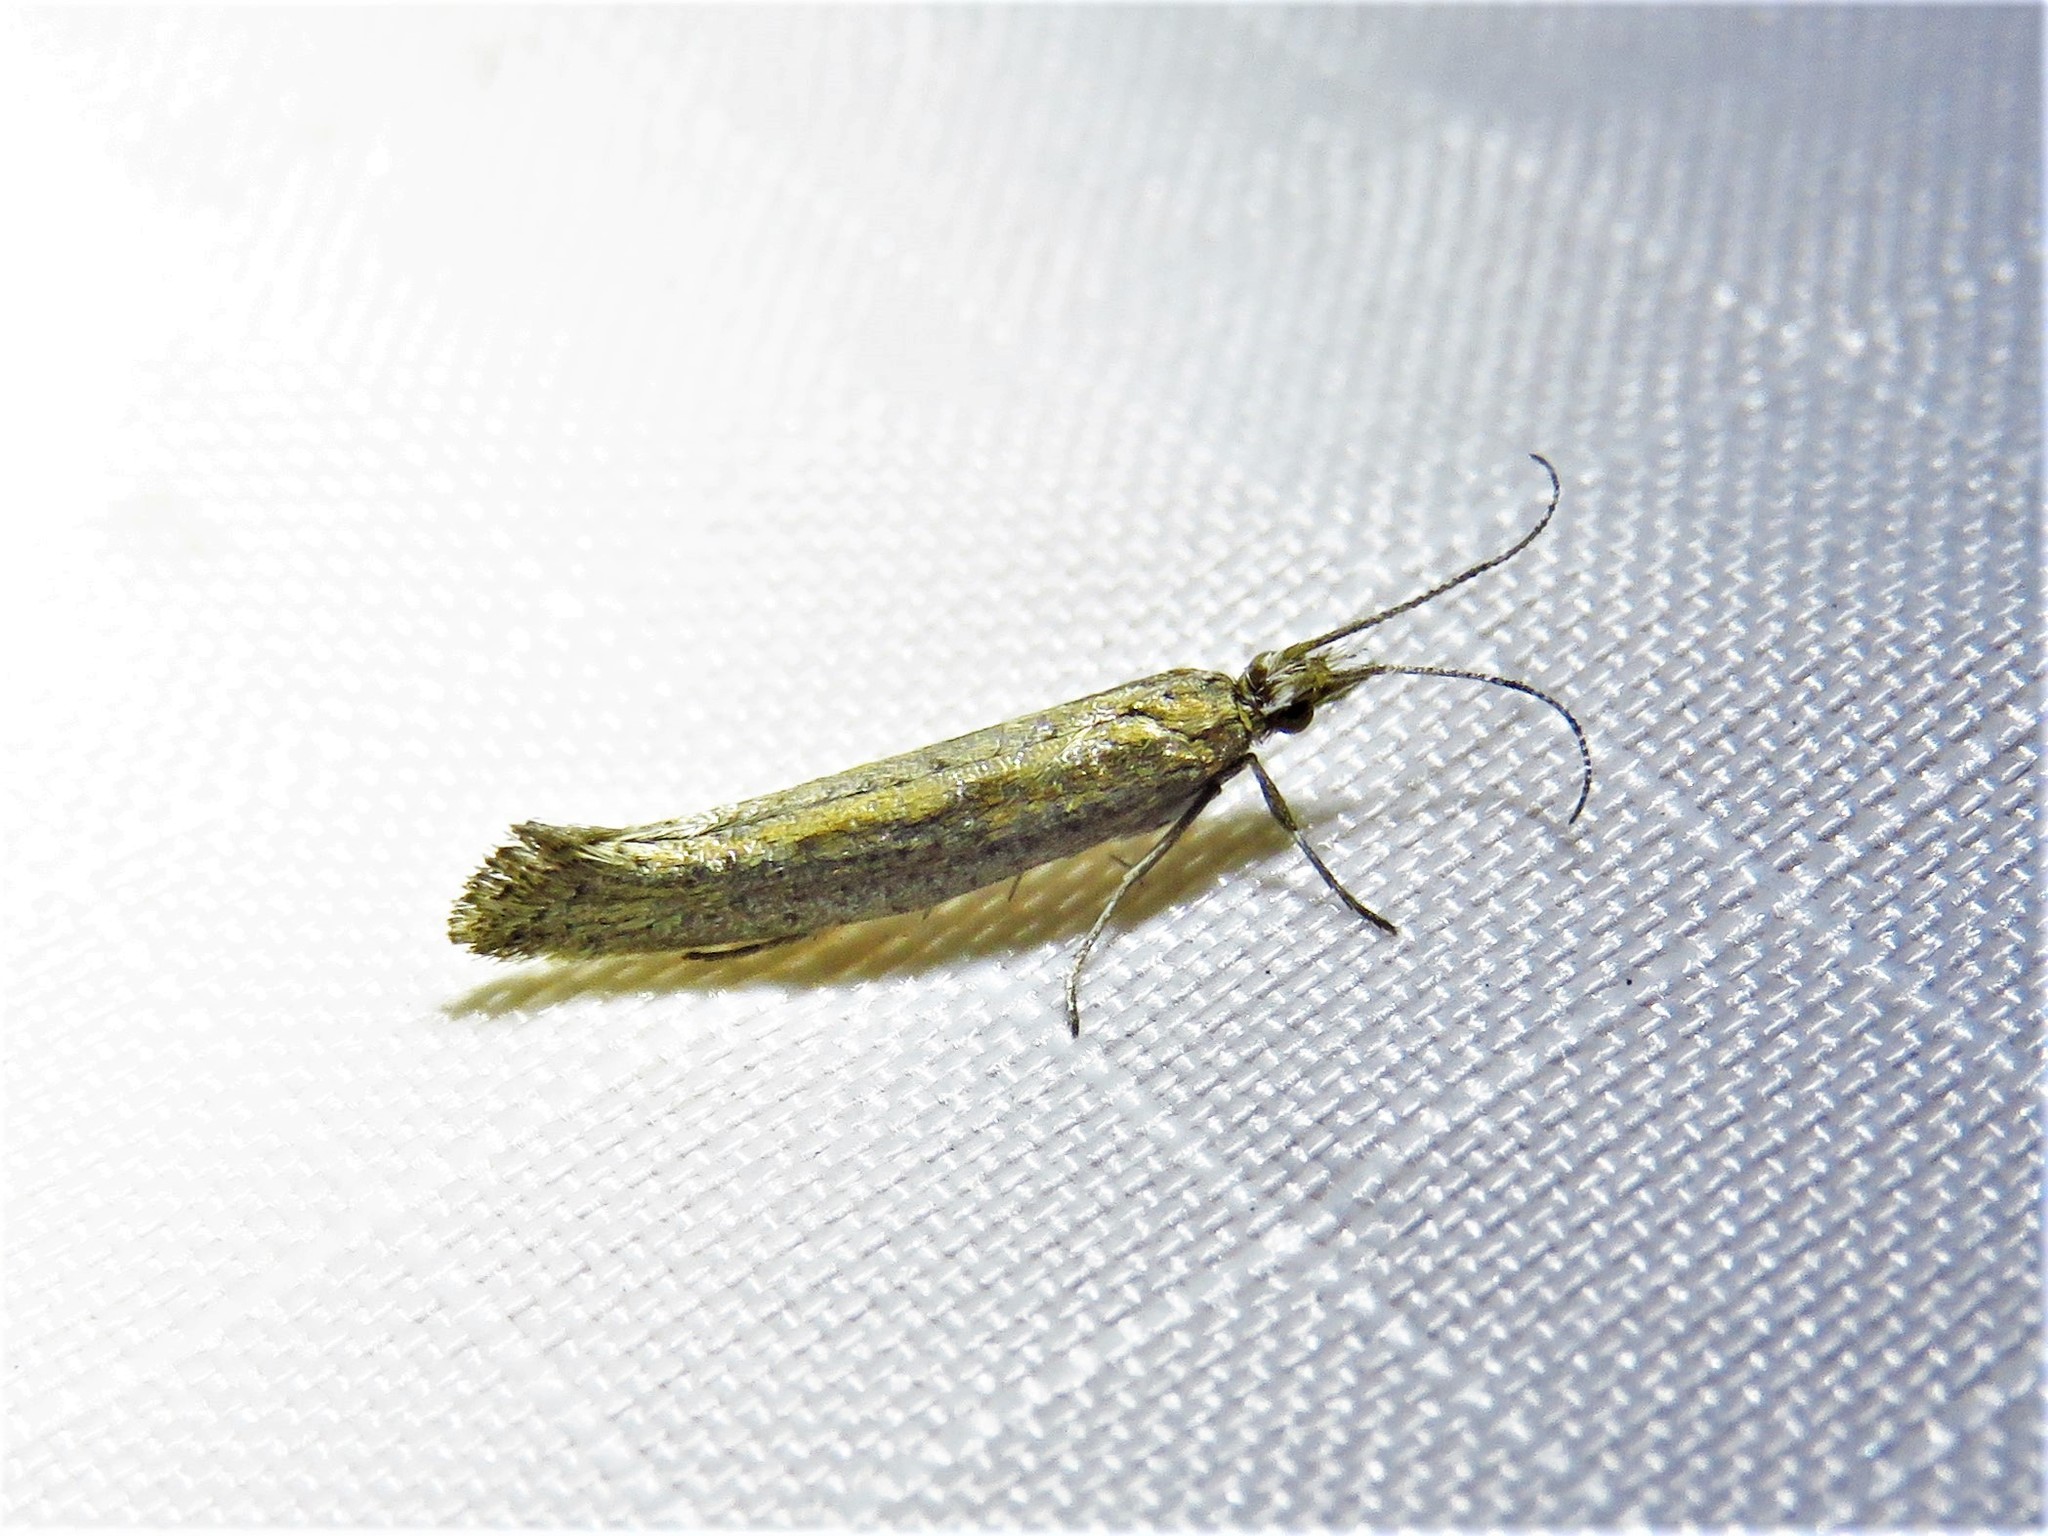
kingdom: Animalia
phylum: Arthropoda
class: Insecta
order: Lepidoptera
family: Plutellidae
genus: Plutella
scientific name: Plutella xylostella
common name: Diamond-back moth
